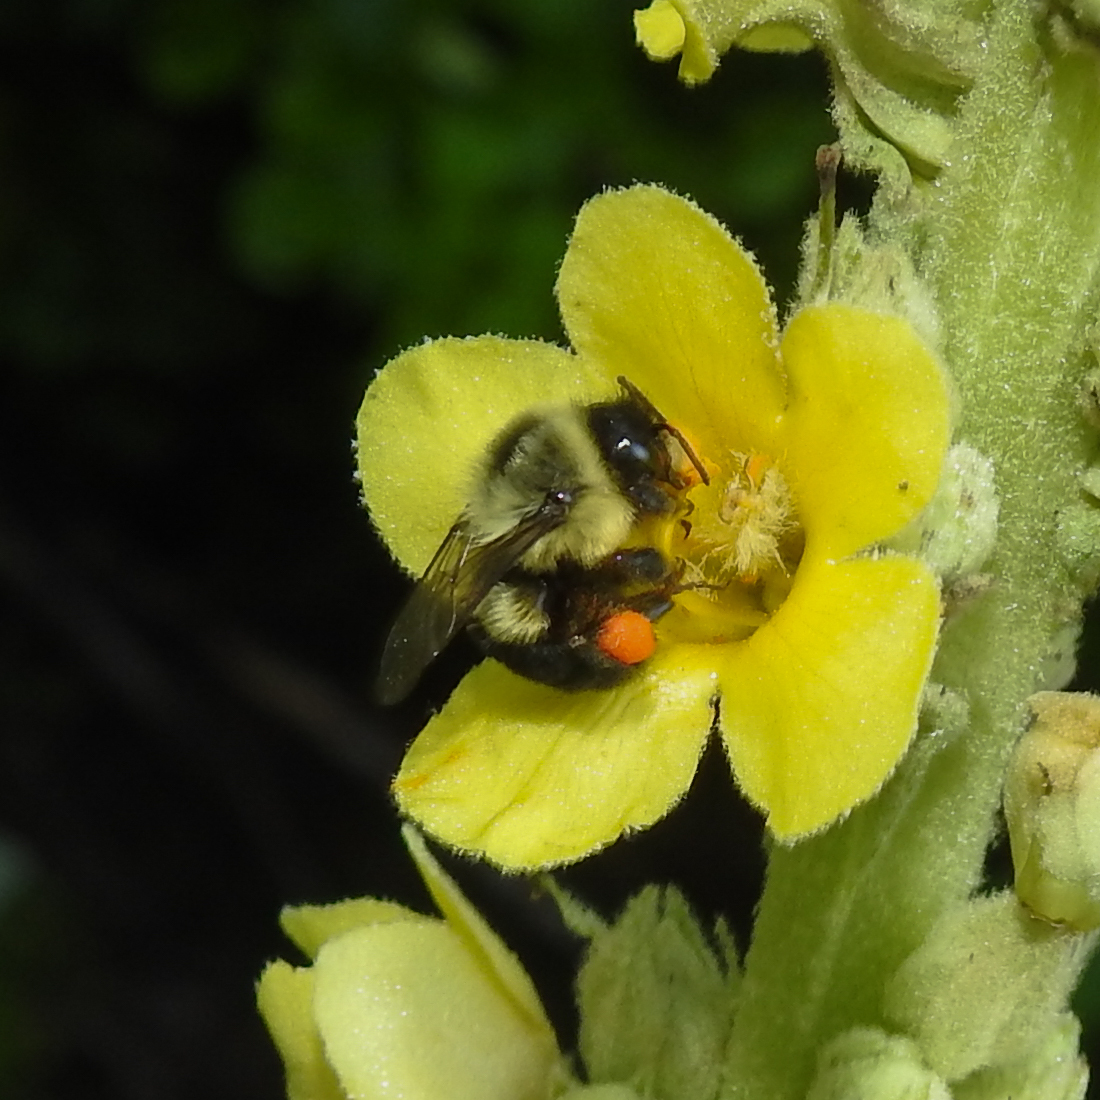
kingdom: Animalia
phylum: Arthropoda
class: Insecta
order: Hymenoptera
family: Apidae
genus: Bombus
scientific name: Bombus impatiens
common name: Common eastern bumble bee
